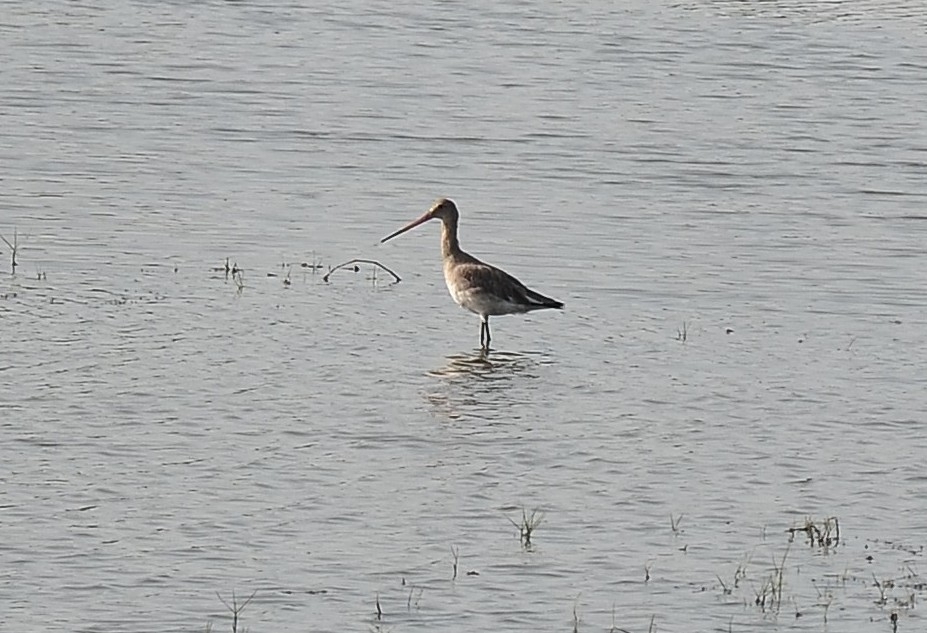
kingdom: Animalia
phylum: Chordata
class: Aves
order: Charadriiformes
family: Scolopacidae
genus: Limosa
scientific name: Limosa limosa
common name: Black-tailed godwit
